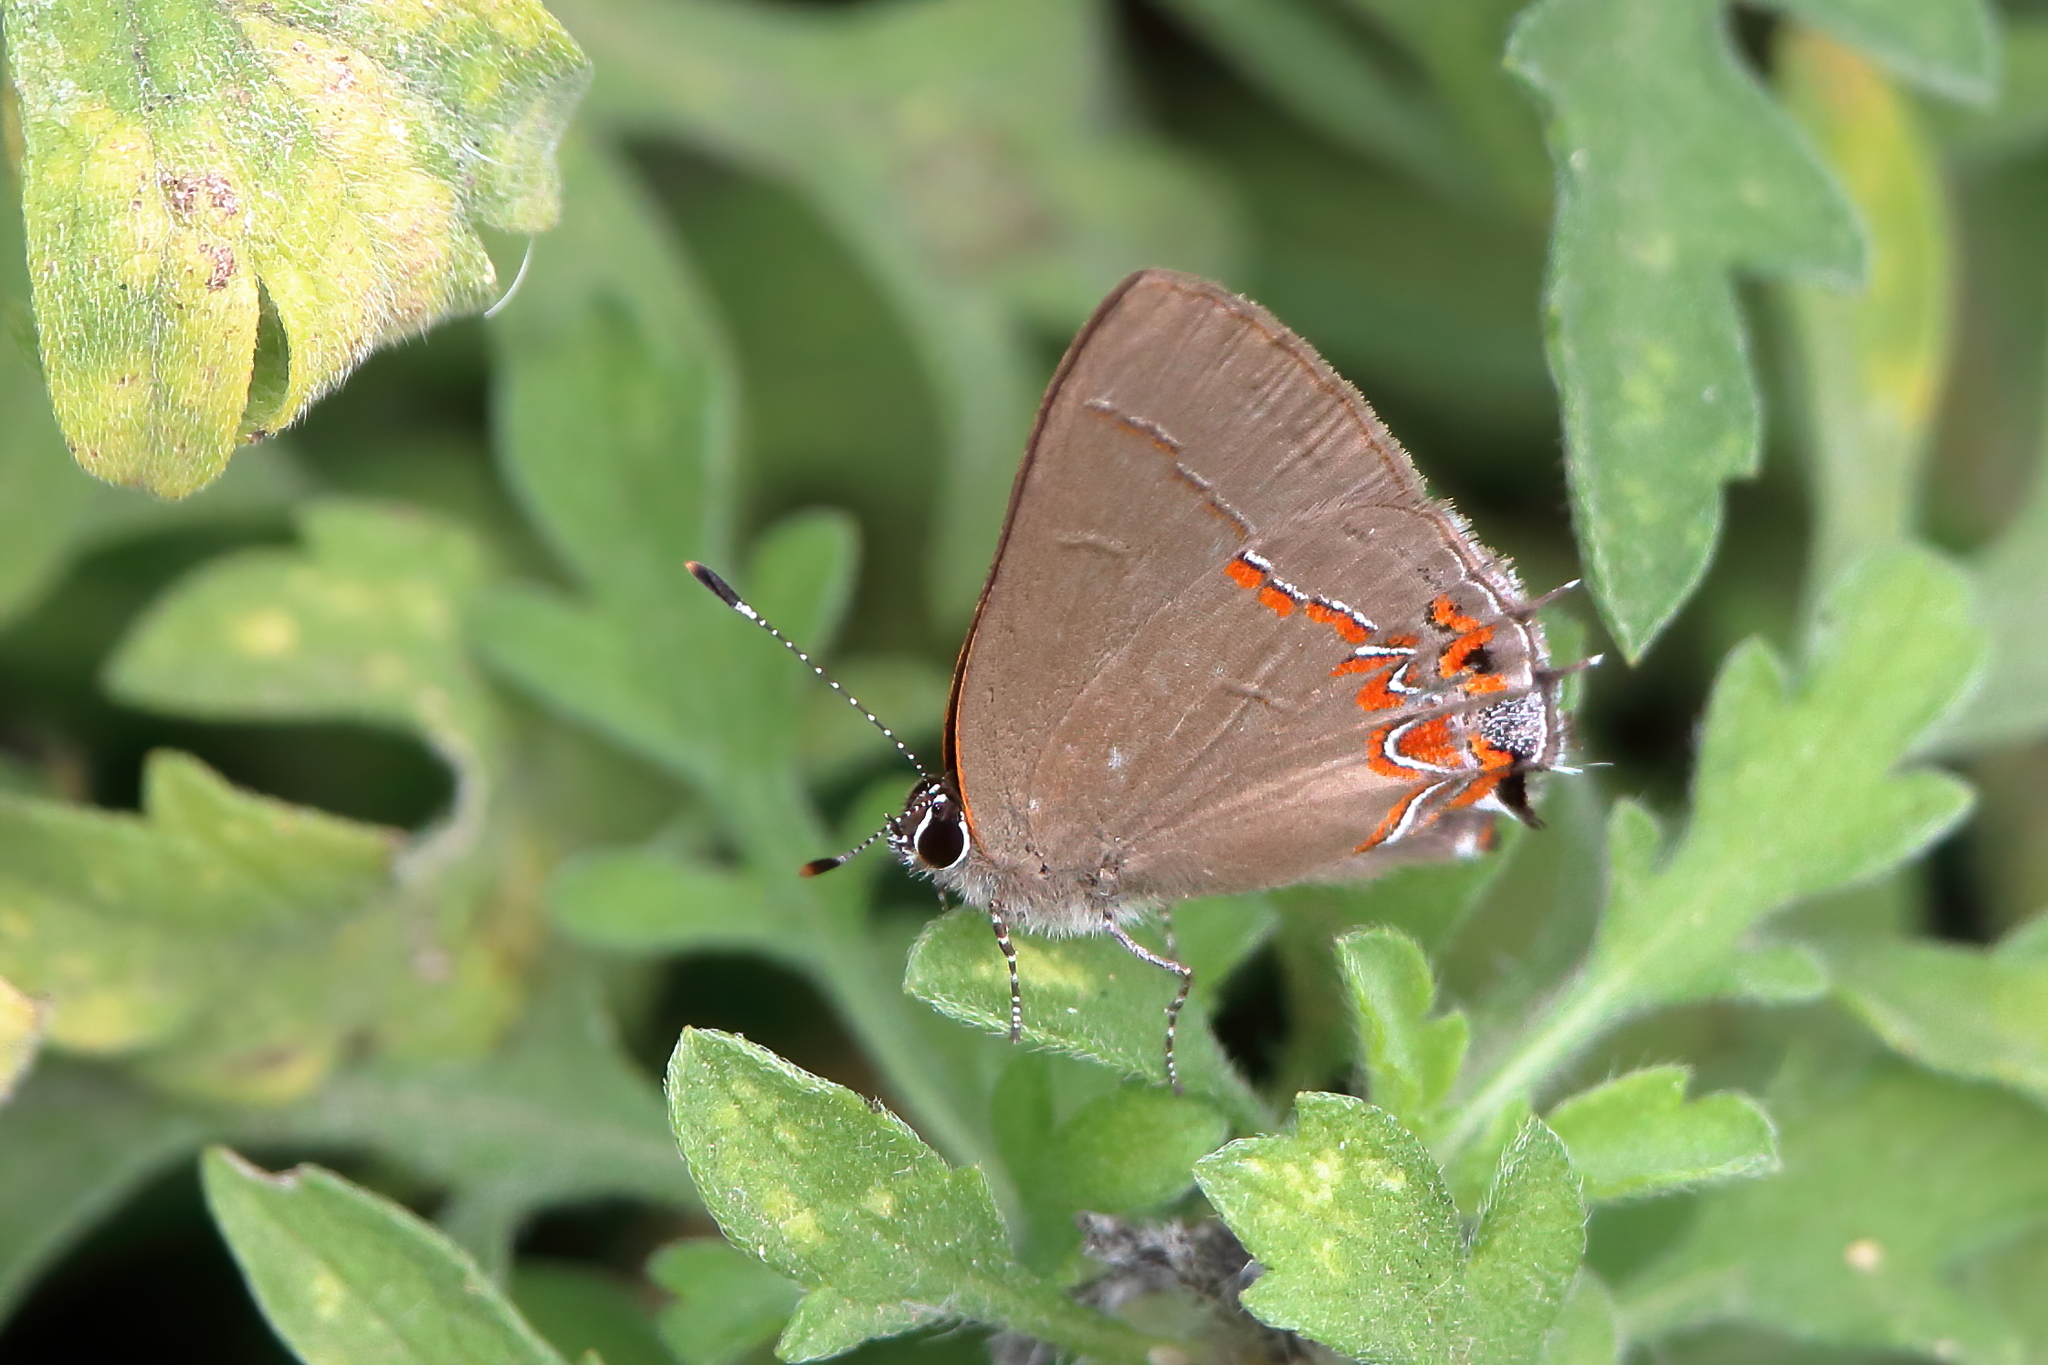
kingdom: Animalia
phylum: Arthropoda
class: Insecta
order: Lepidoptera
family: Lycaenidae
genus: Calycopis
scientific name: Calycopis isobeon
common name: Dusky-blue groundstreak
